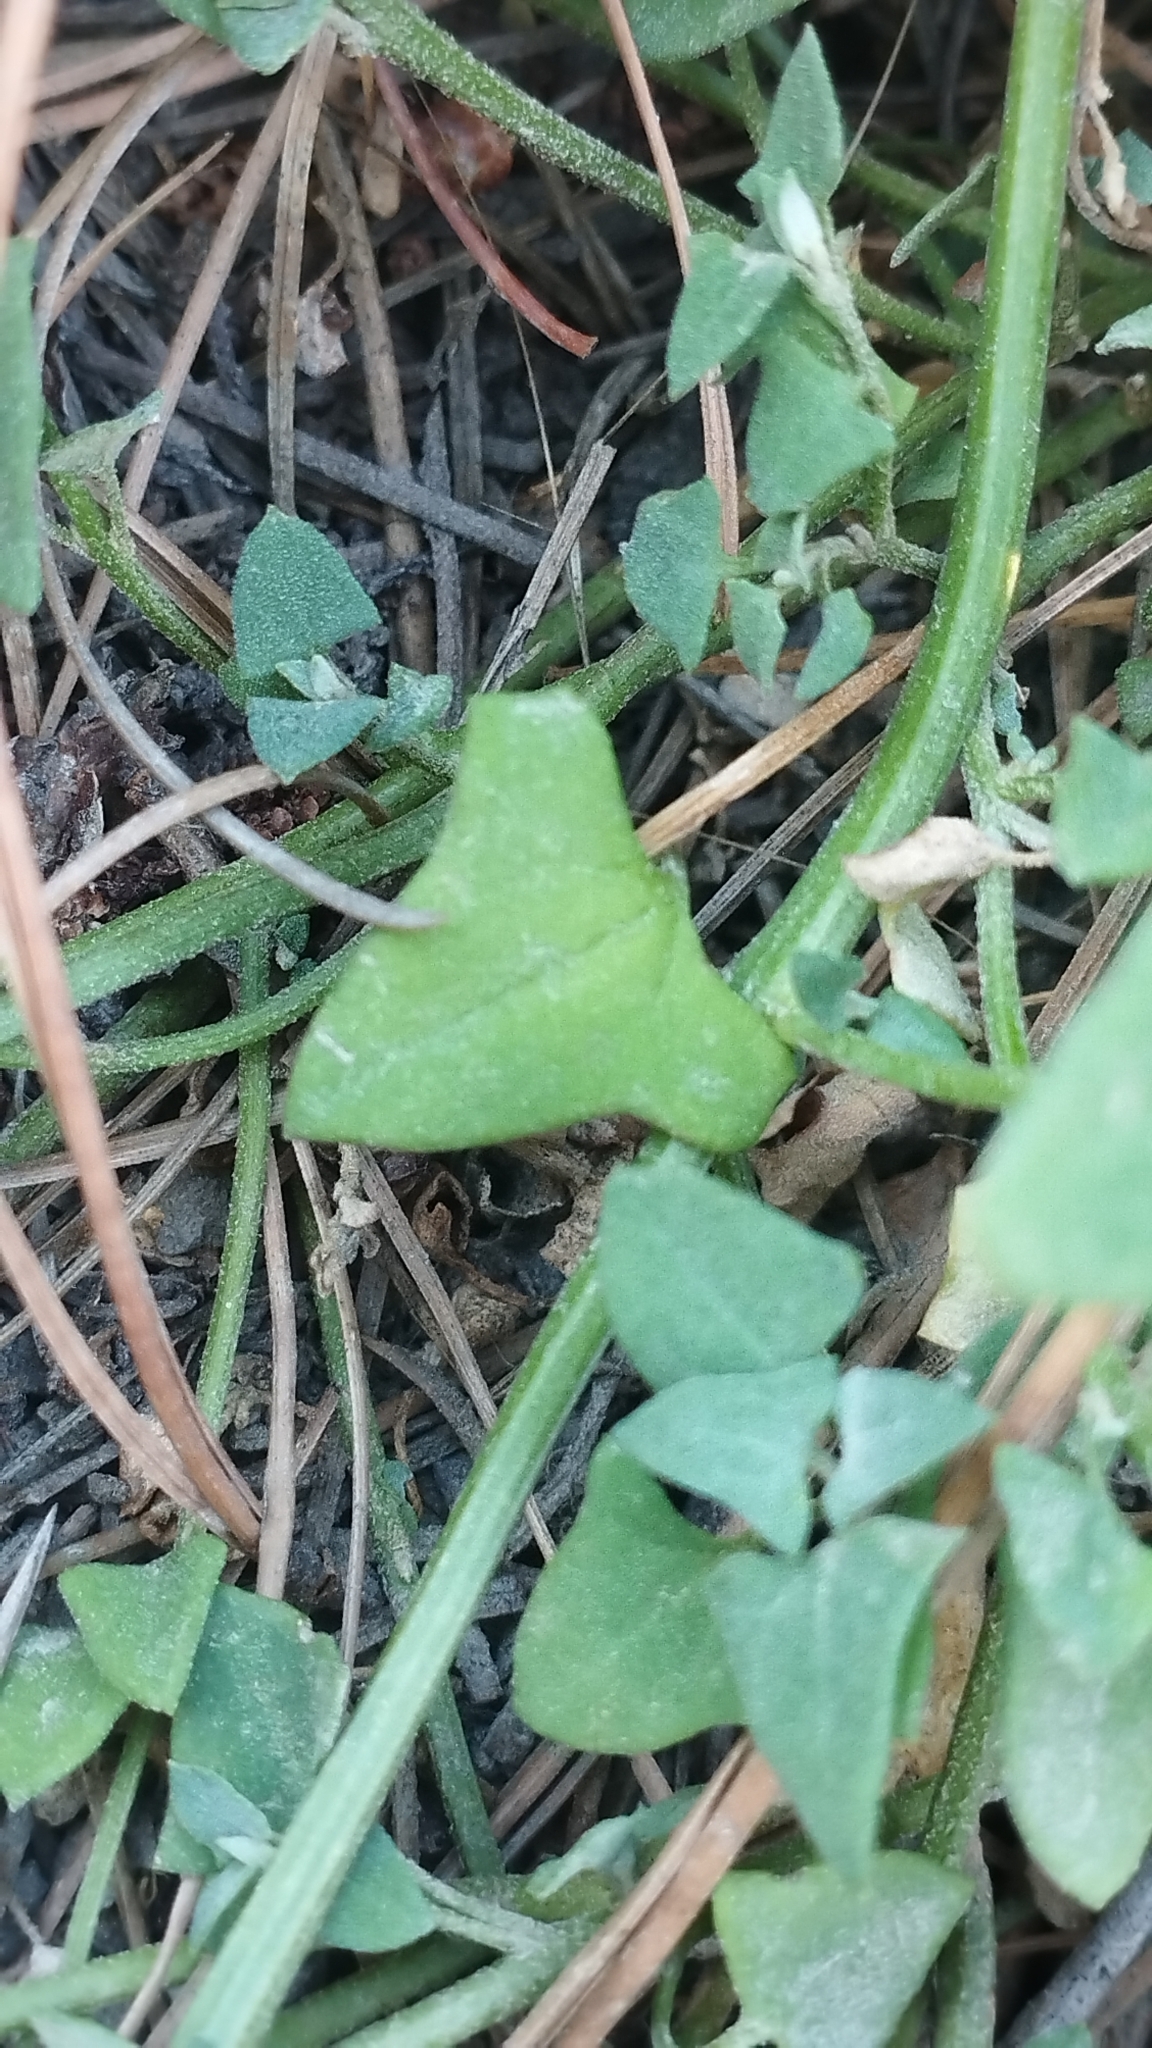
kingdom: Plantae
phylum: Tracheophyta
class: Magnoliopsida
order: Caryophyllales
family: Amaranthaceae
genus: Atriplex
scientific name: Atriplex prostrata
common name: Spear-leaved orache
